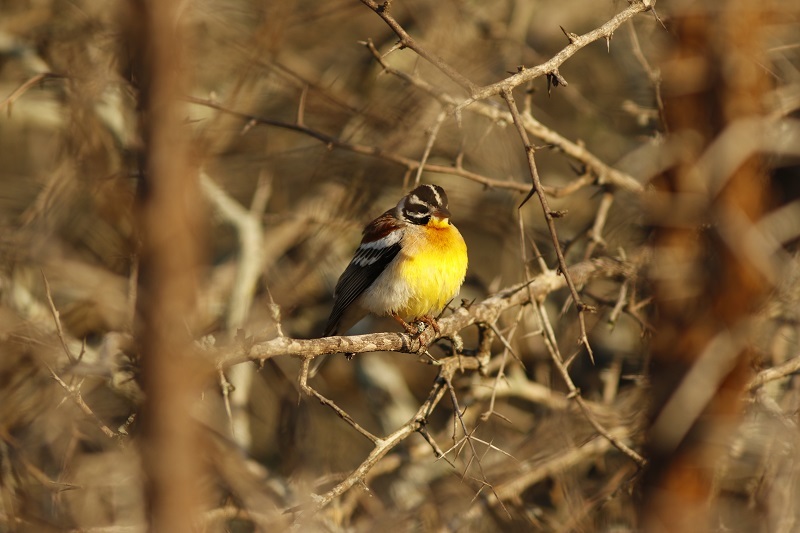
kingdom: Animalia
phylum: Chordata
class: Aves
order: Passeriformes
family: Emberizidae
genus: Emberiza
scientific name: Emberiza flaviventris
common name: Golden-breasted bunting
